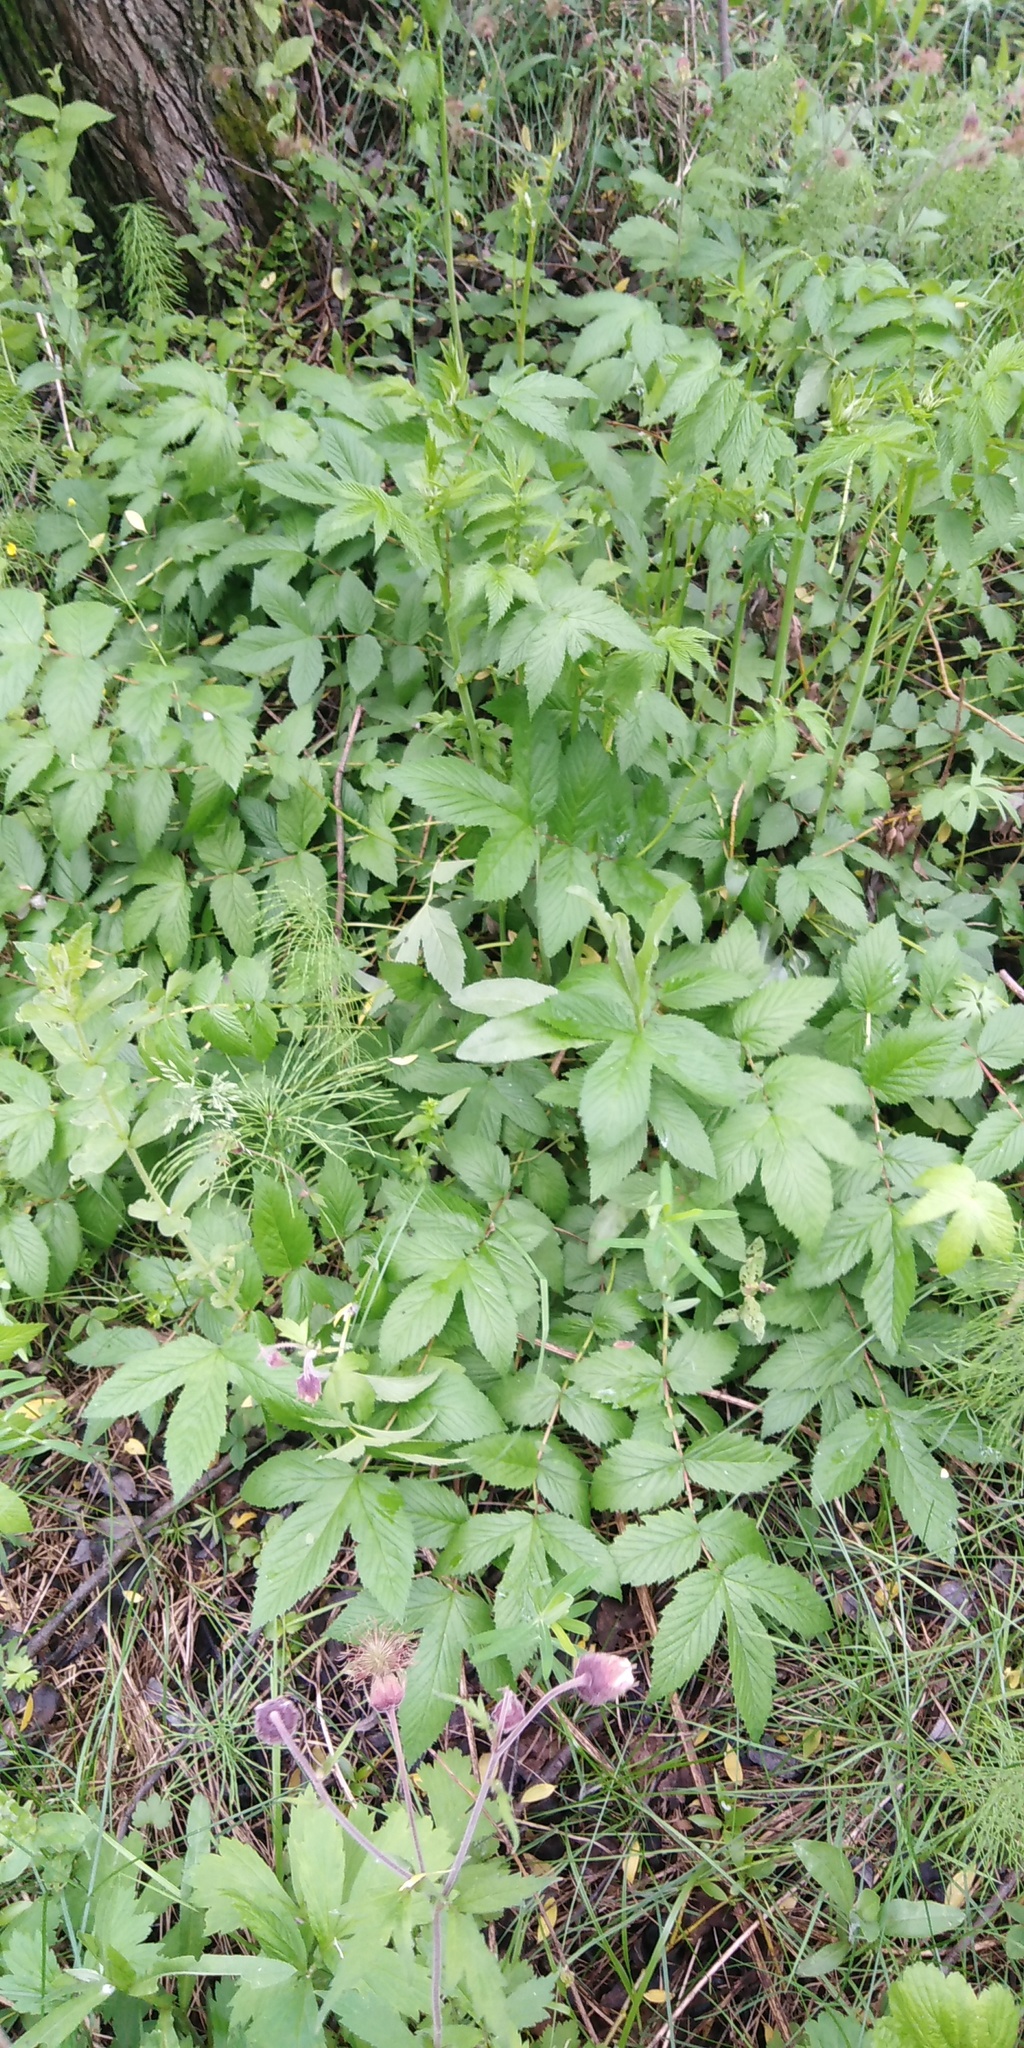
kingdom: Plantae
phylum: Tracheophyta
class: Magnoliopsida
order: Rosales
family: Rosaceae
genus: Filipendula
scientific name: Filipendula ulmaria
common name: Meadowsweet
